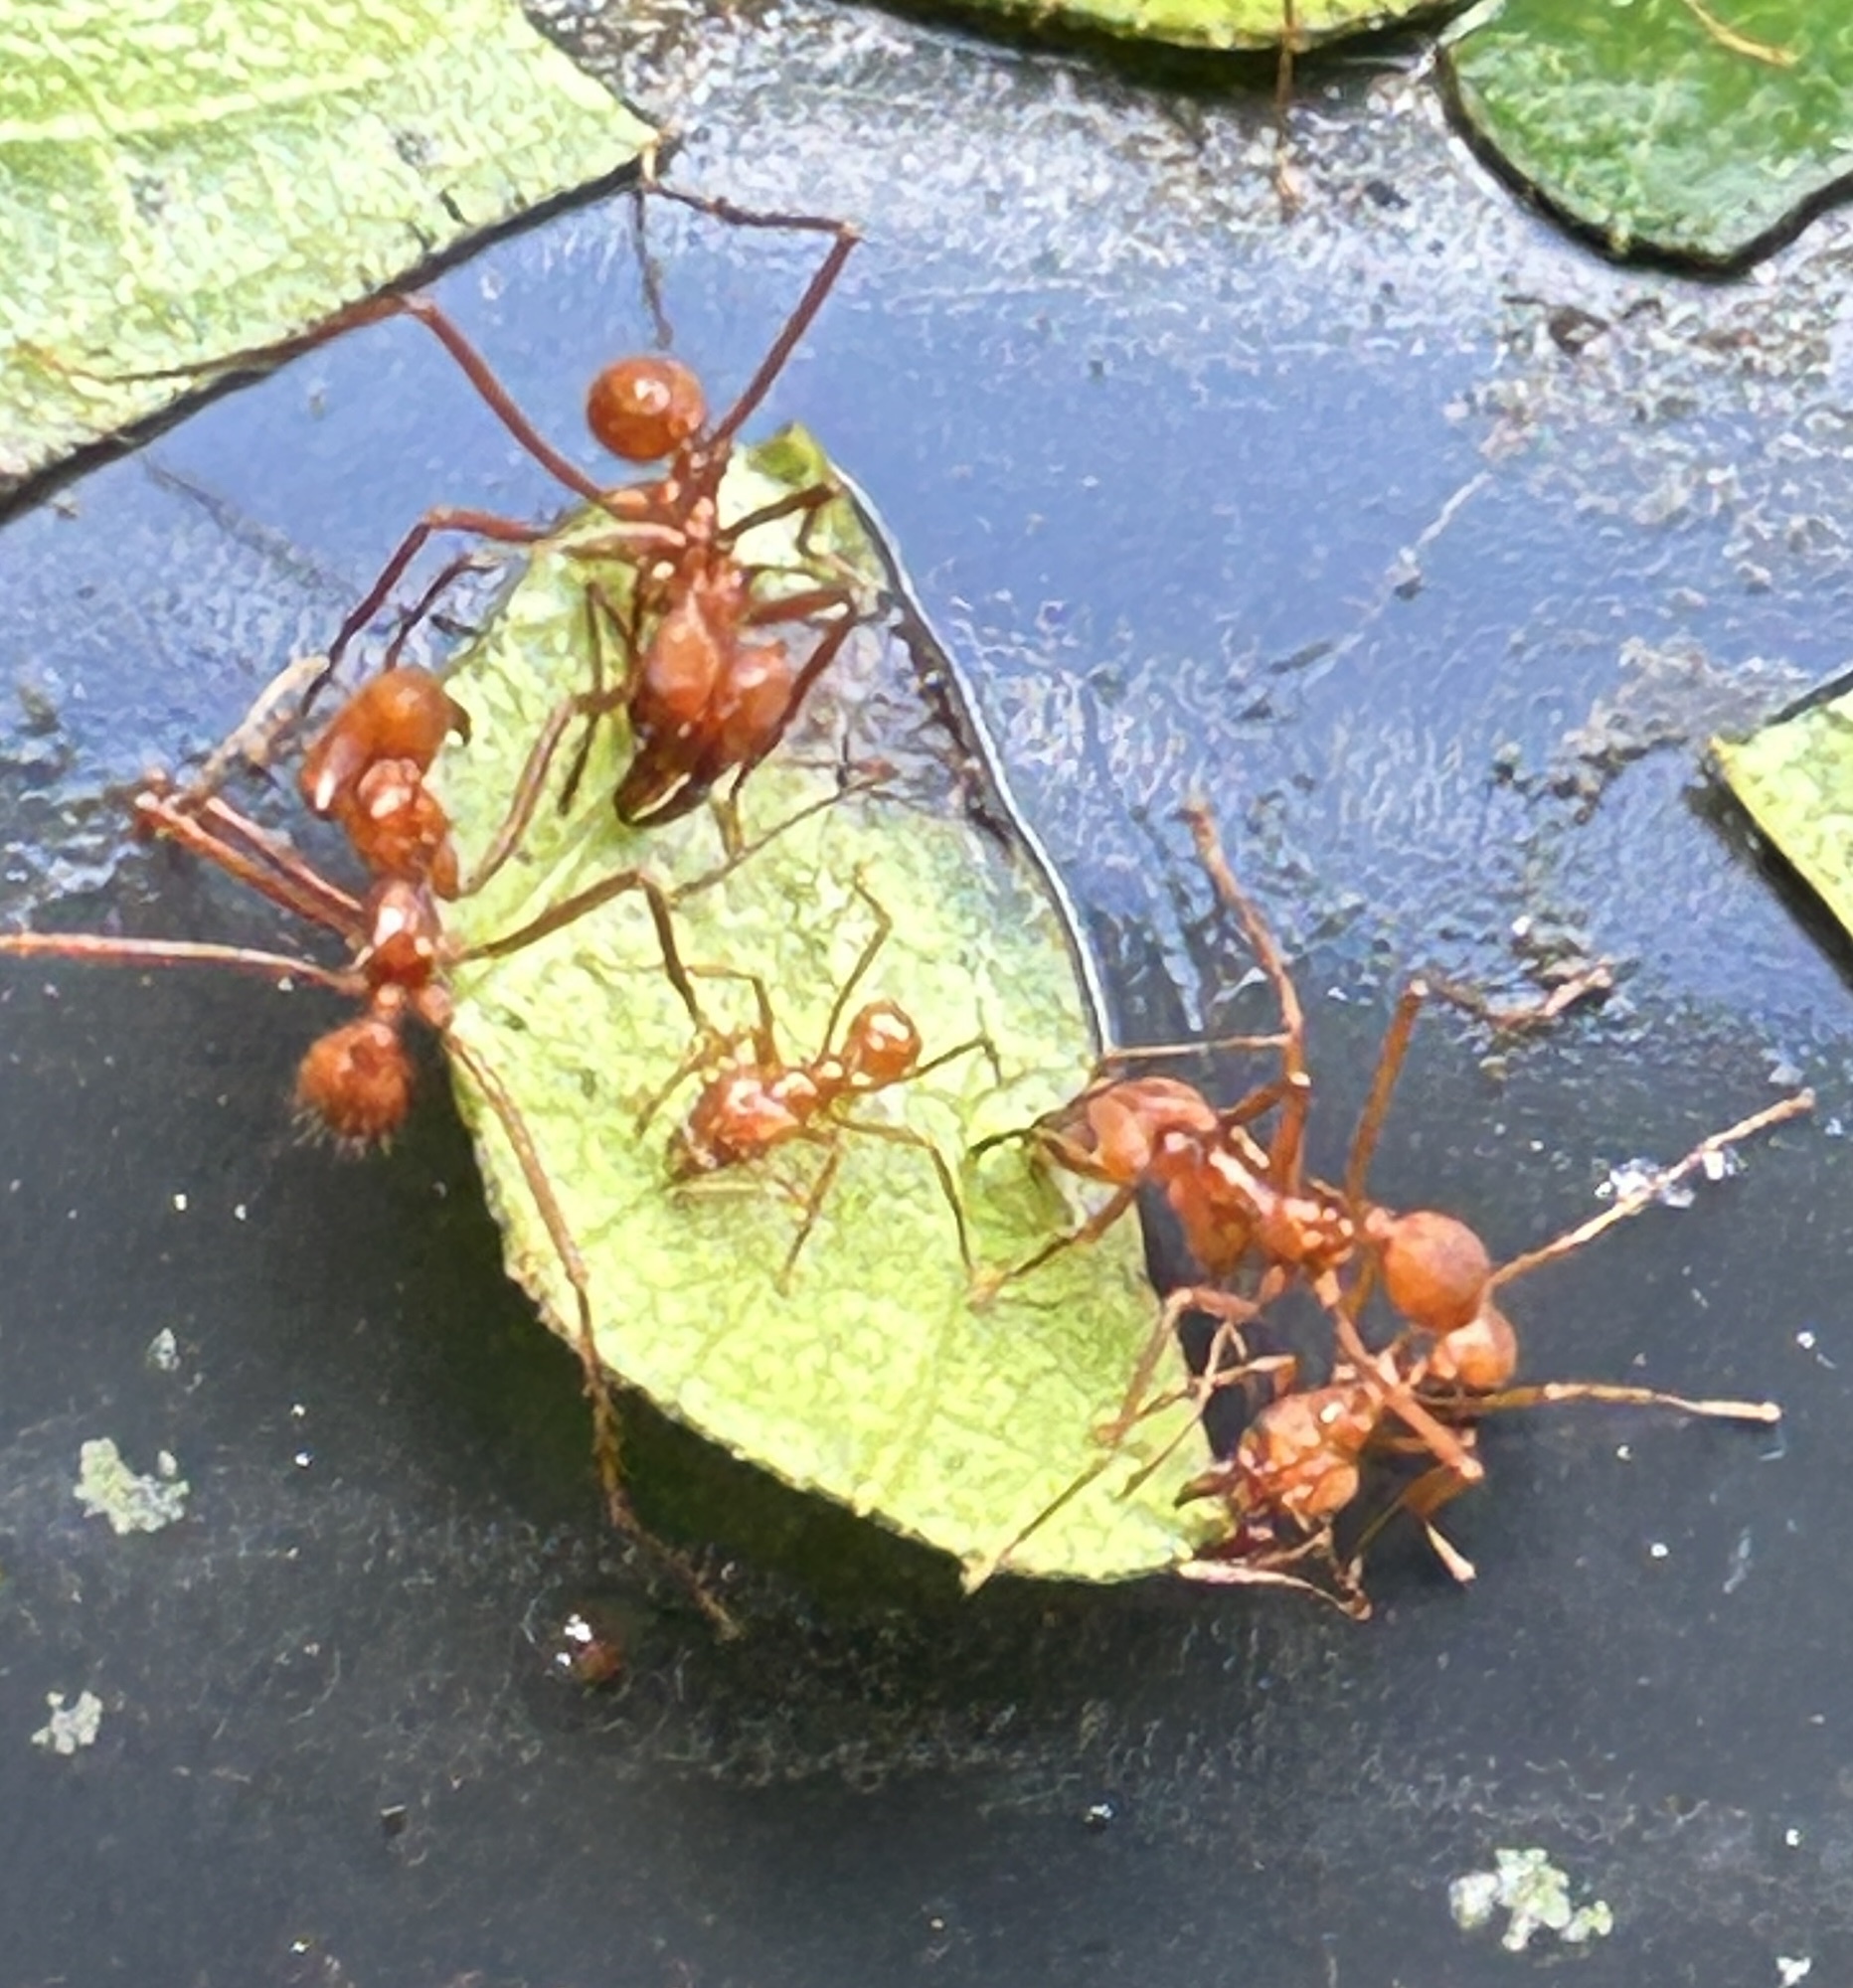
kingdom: Animalia
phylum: Arthropoda
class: Insecta
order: Hymenoptera
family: Formicidae
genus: Atta
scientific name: Atta cephalotes
